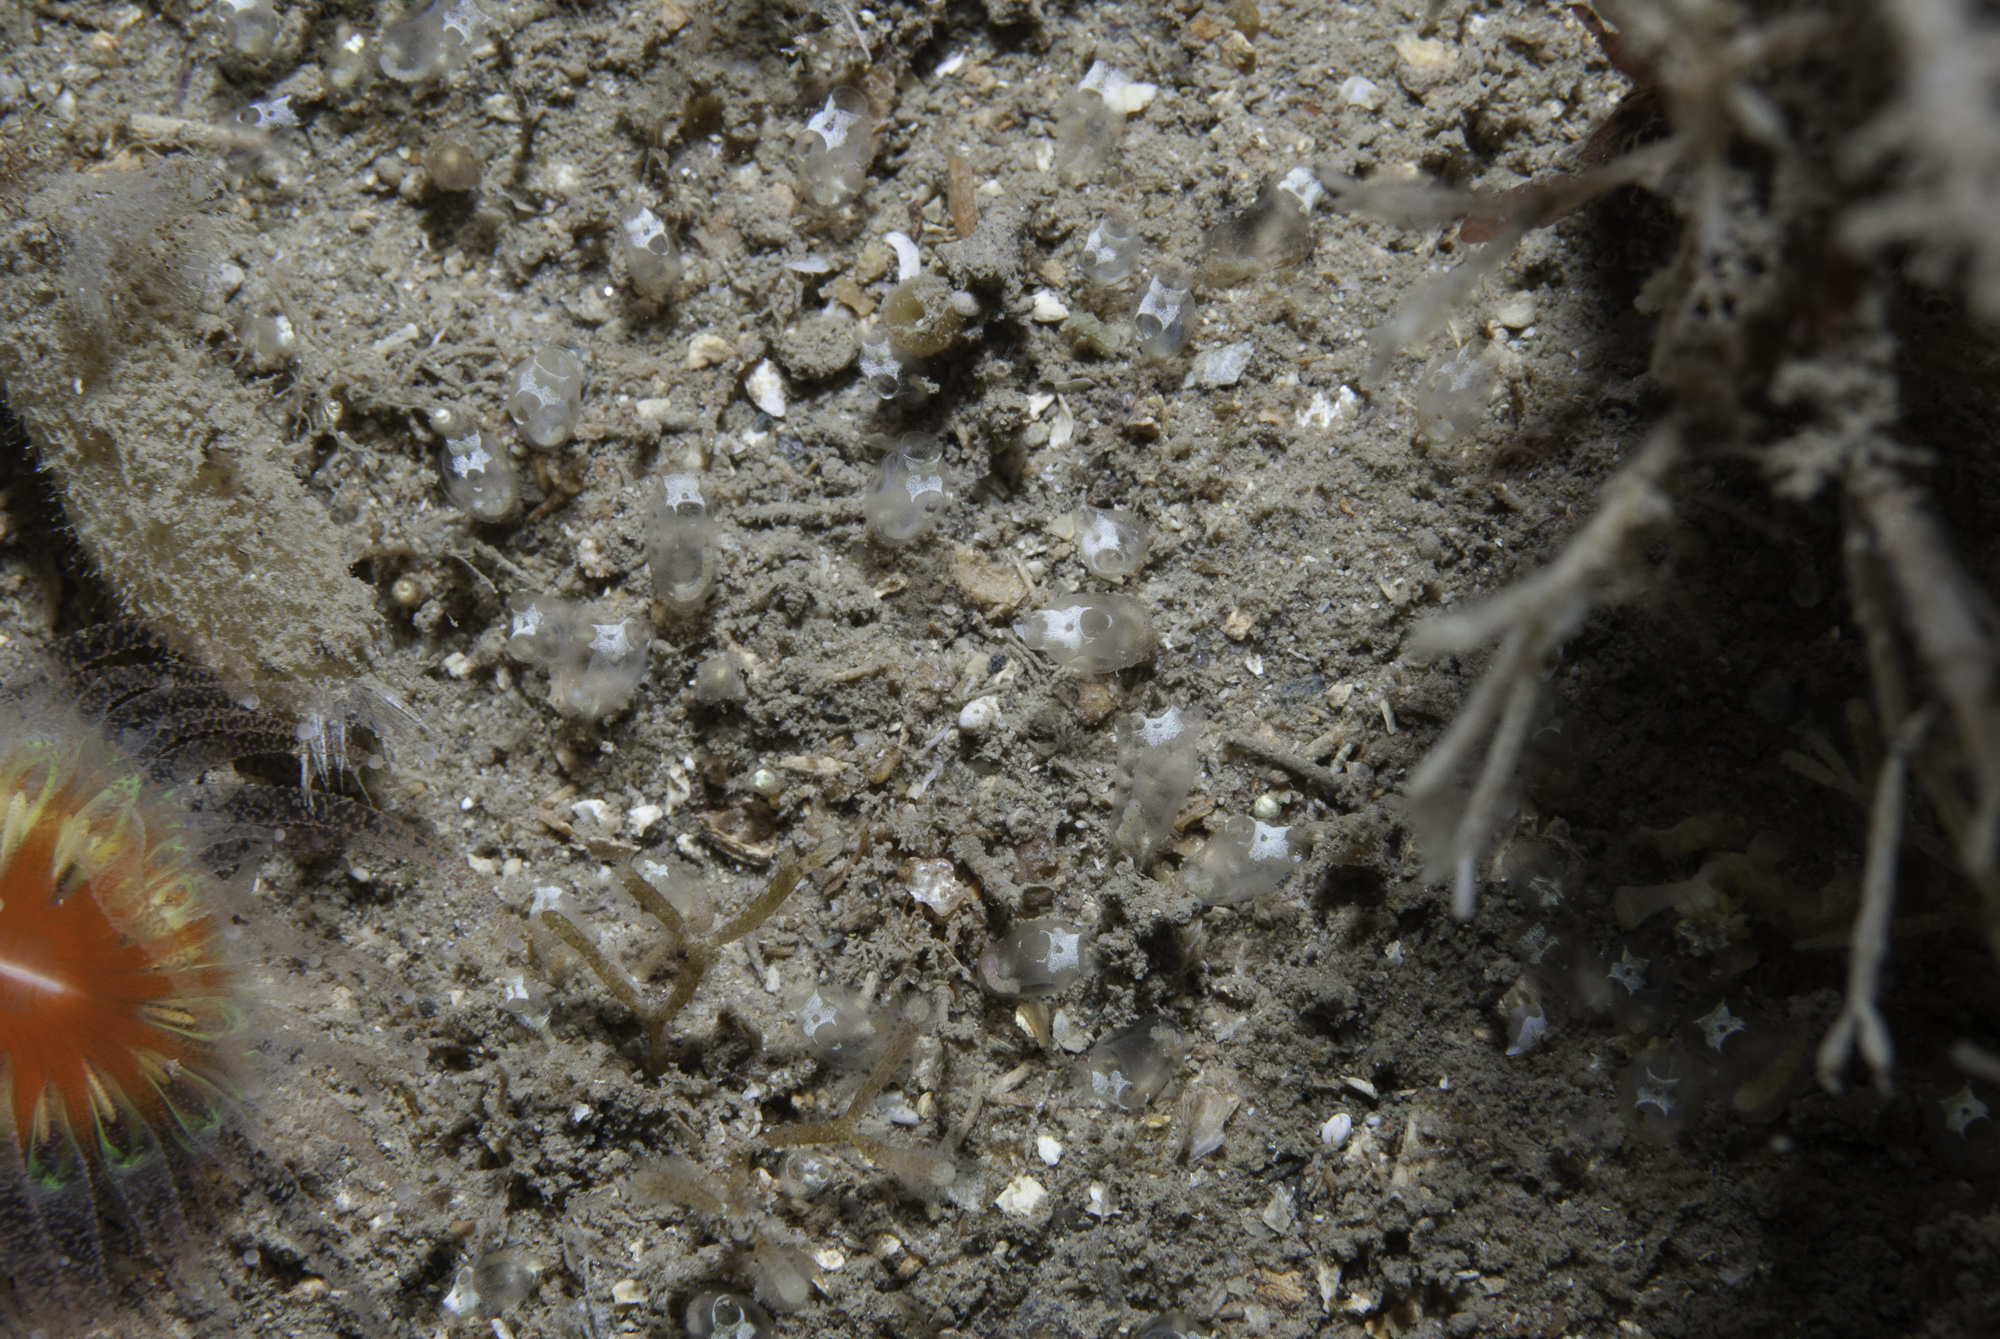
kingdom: Animalia
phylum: Chordata
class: Ascidiacea
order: Aplousobranchia
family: Clavelinidae
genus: Pycnoclavella
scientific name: Pycnoclavella stolonialis
